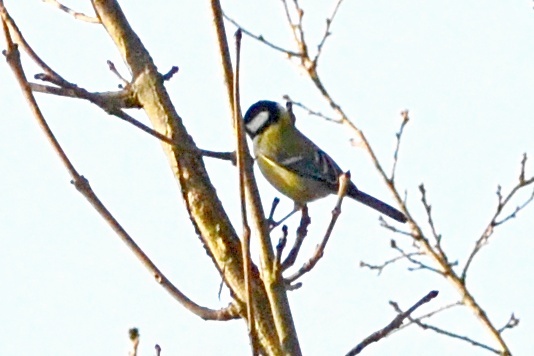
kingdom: Animalia
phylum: Chordata
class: Aves
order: Passeriformes
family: Paridae
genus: Parus
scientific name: Parus major
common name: Great tit
